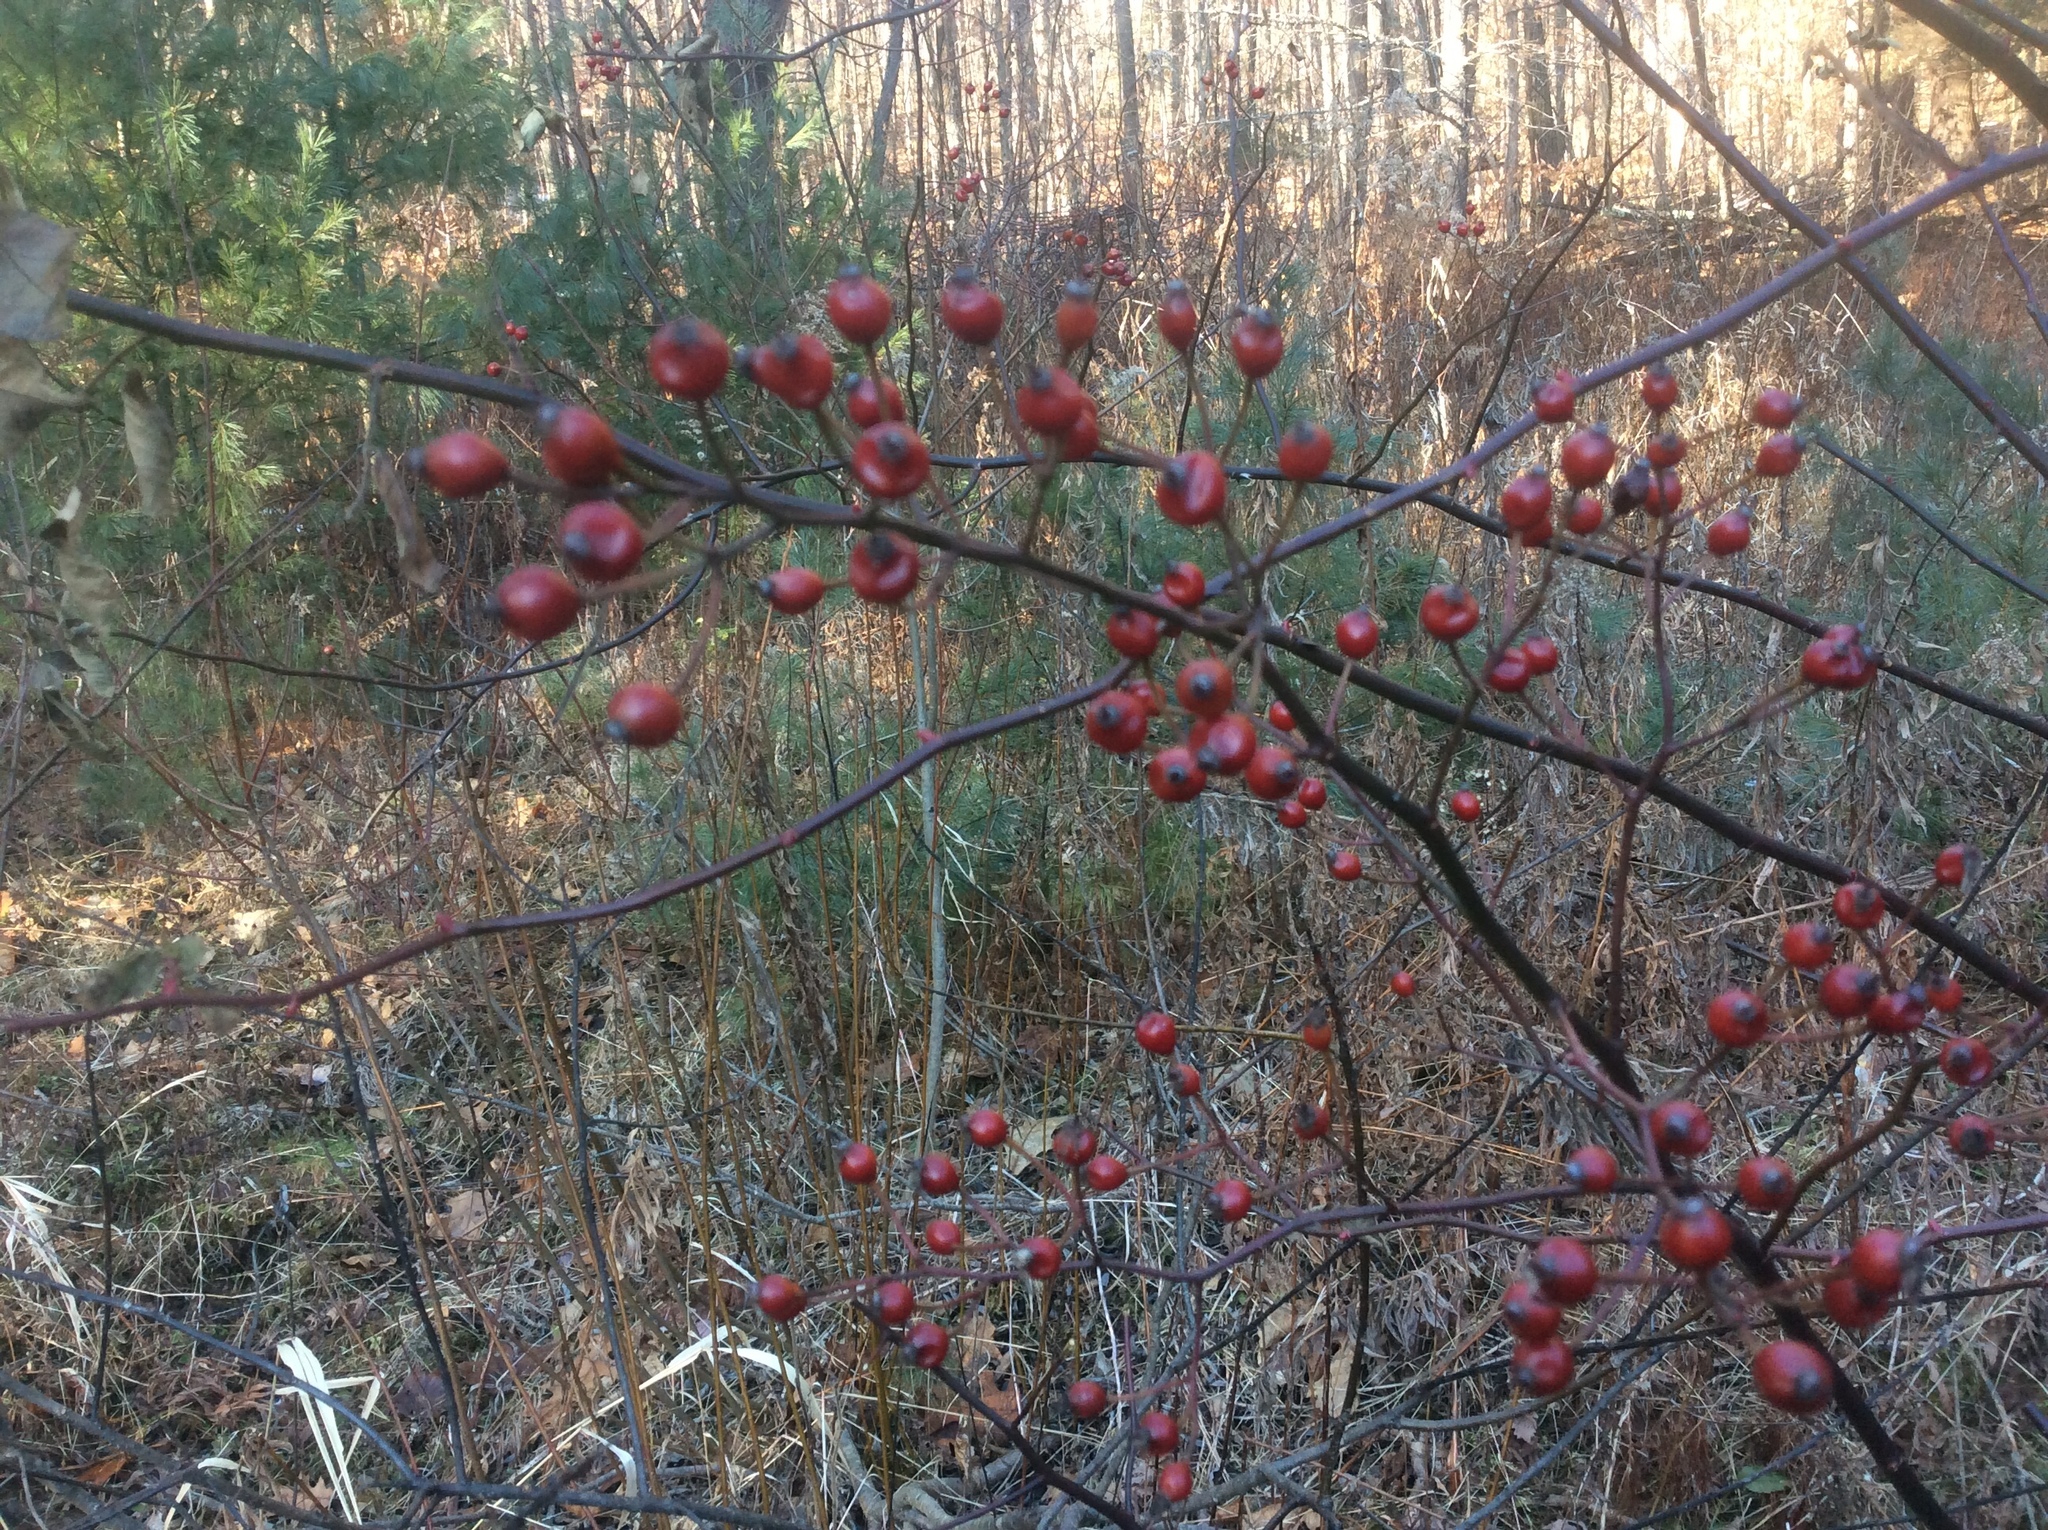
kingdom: Plantae
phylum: Tracheophyta
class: Magnoliopsida
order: Rosales
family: Rosaceae
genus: Rosa
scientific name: Rosa multiflora
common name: Multiflora rose
